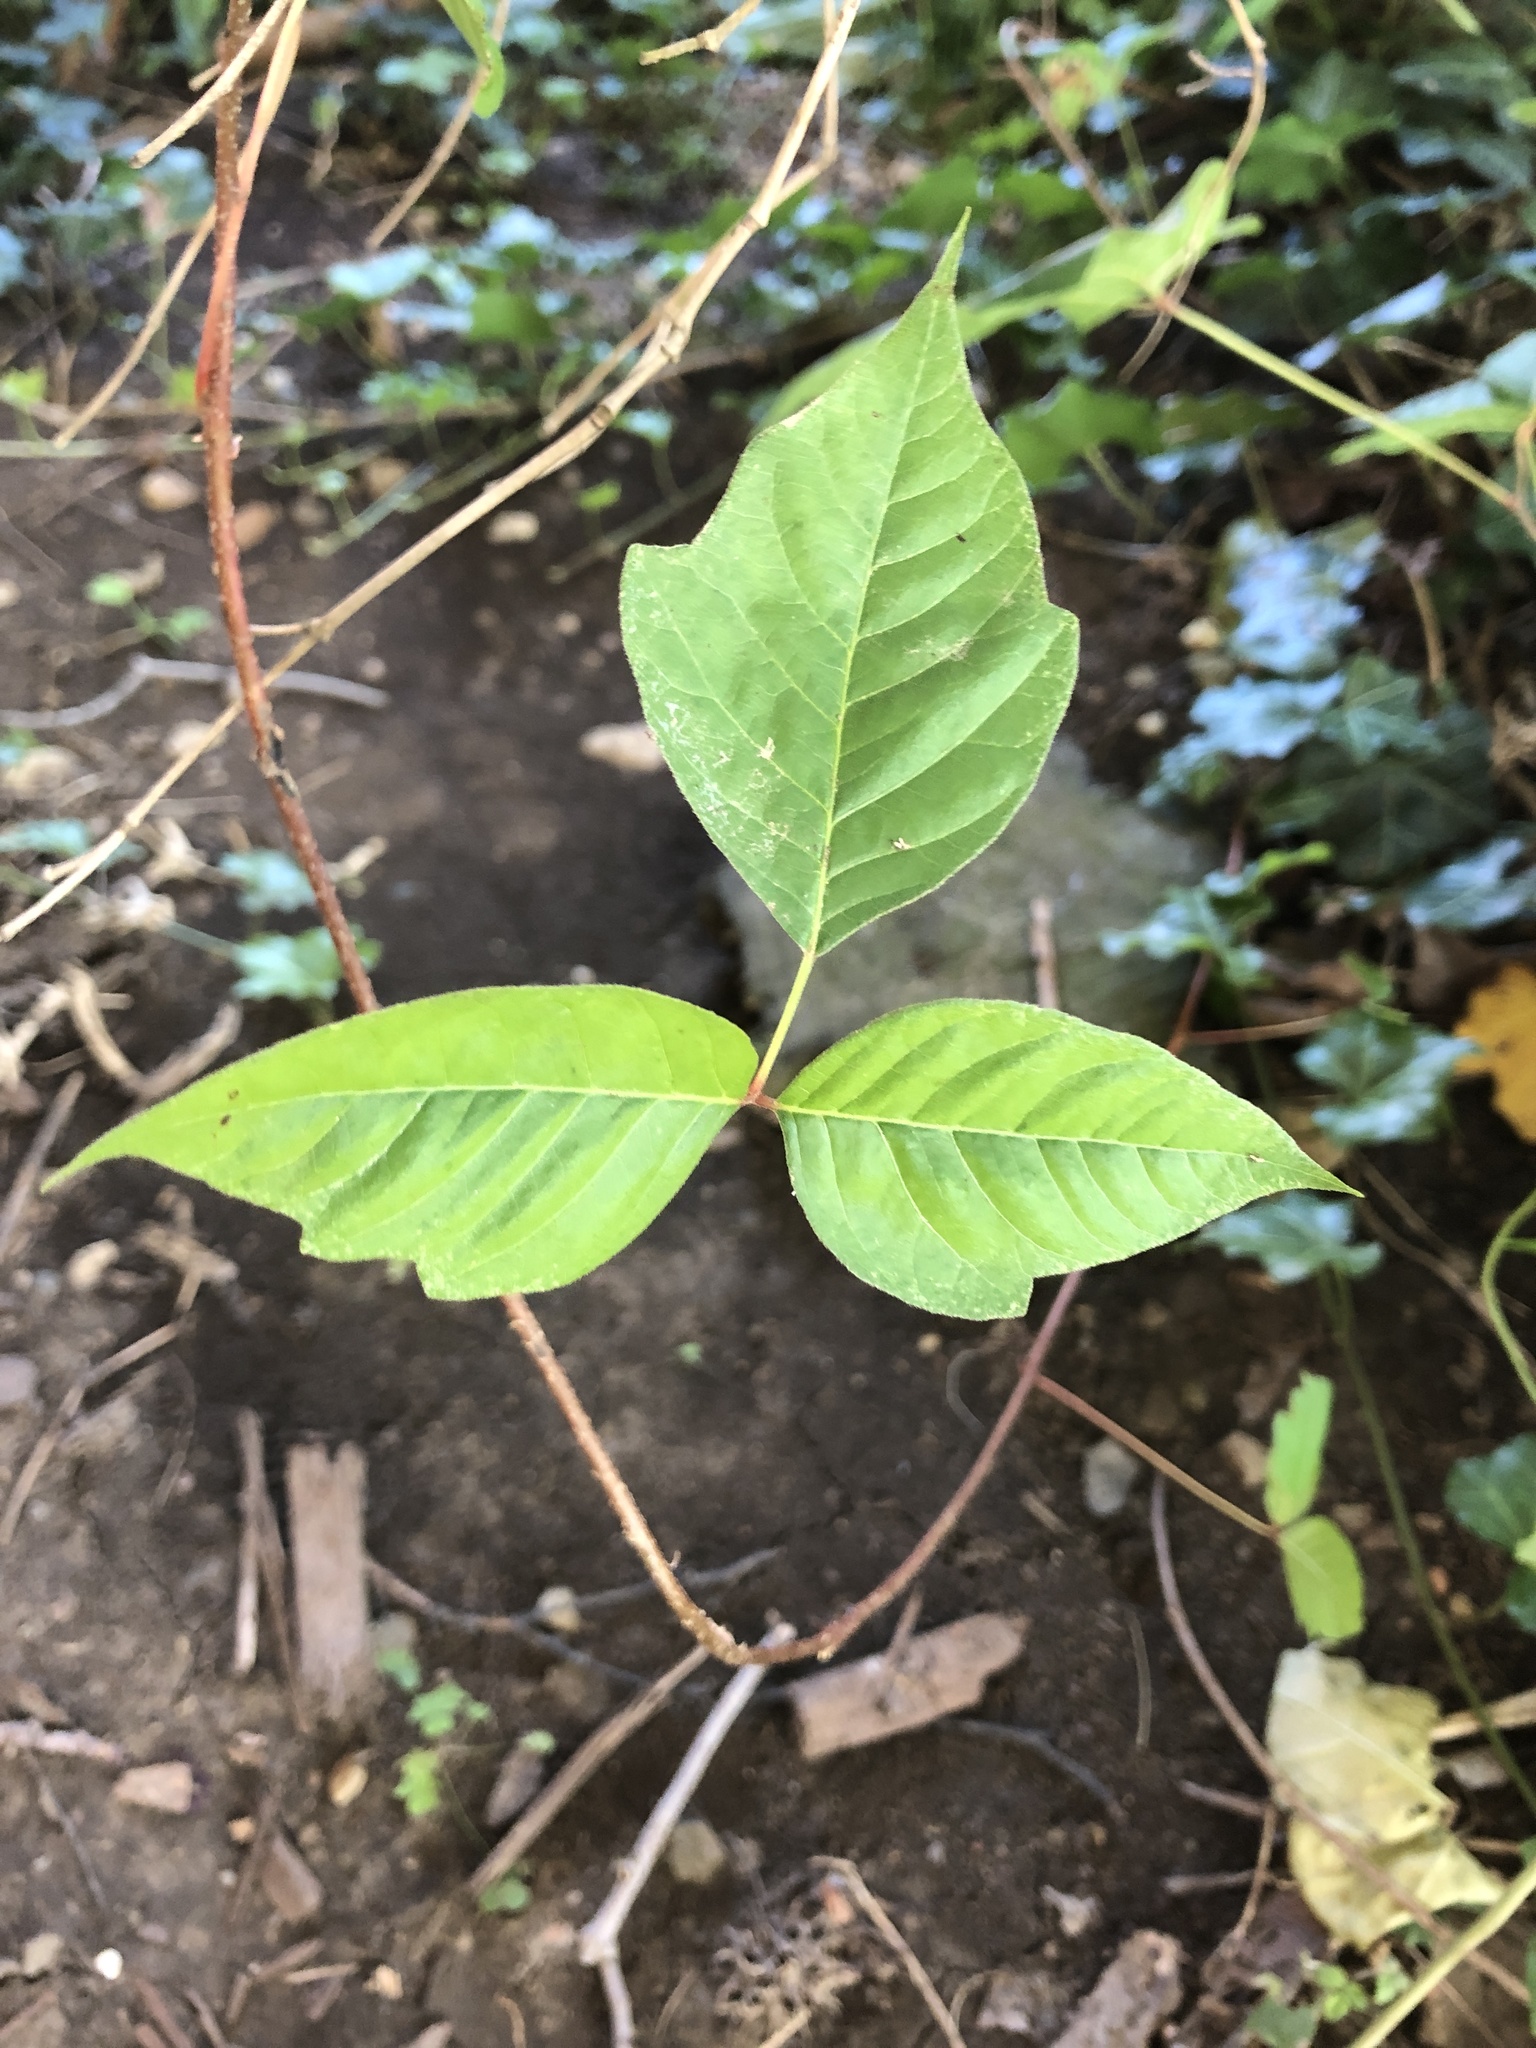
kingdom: Plantae
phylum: Tracheophyta
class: Magnoliopsida
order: Sapindales
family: Anacardiaceae
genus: Toxicodendron
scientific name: Toxicodendron radicans
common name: Poison ivy
